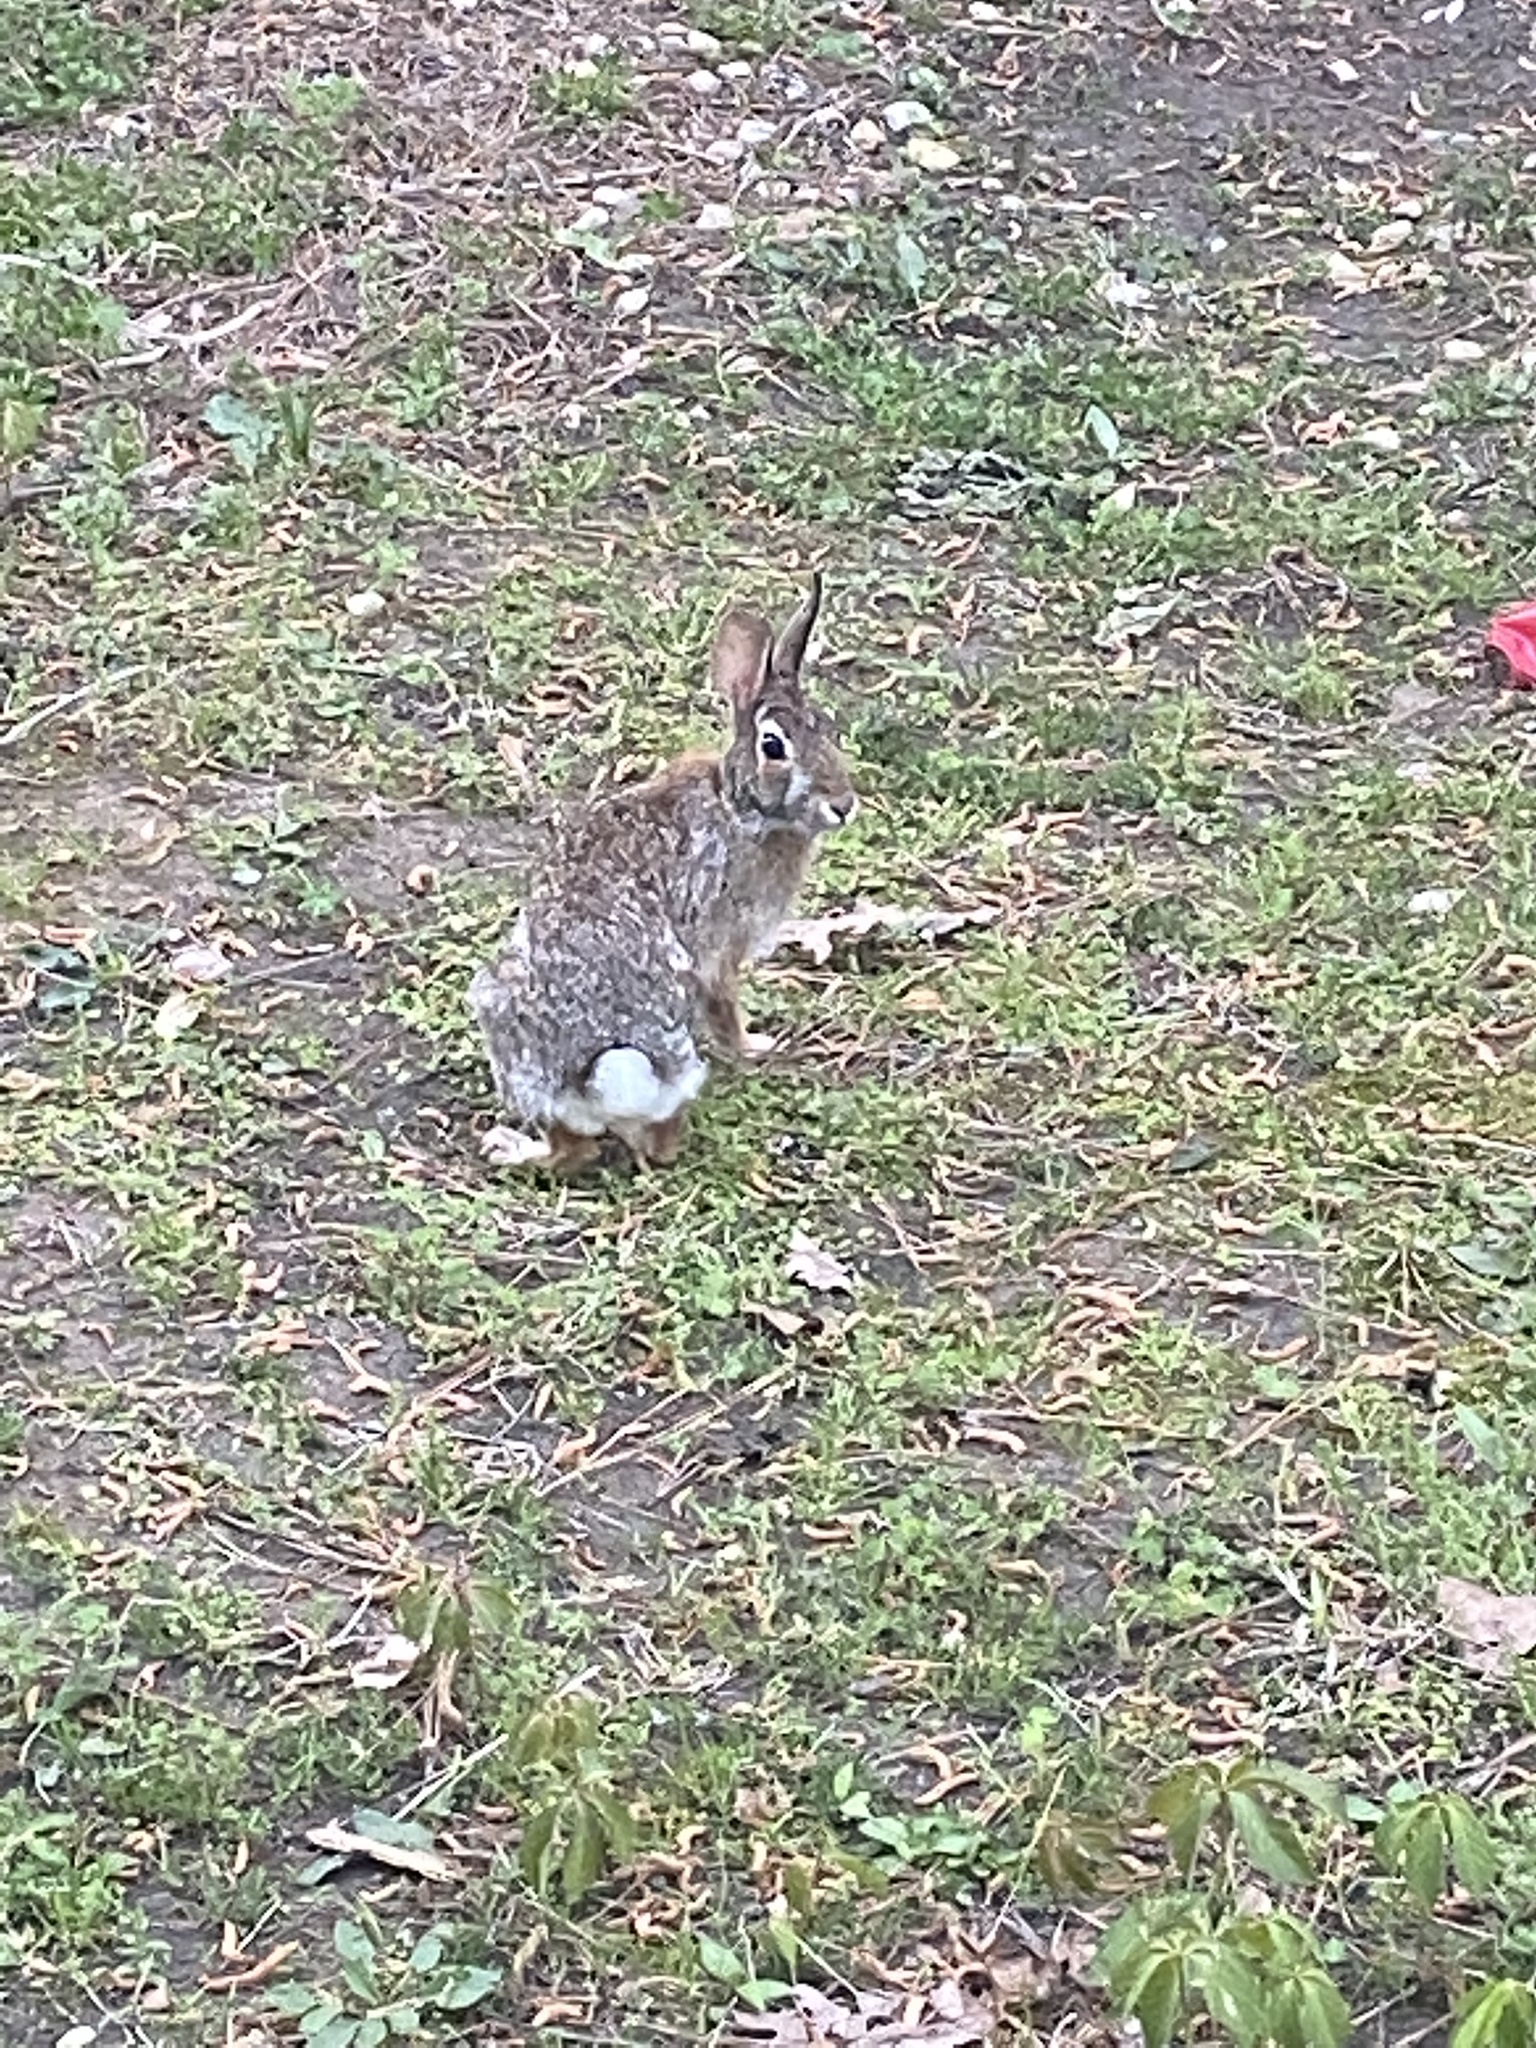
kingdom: Animalia
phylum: Chordata
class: Mammalia
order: Lagomorpha
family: Leporidae
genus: Sylvilagus
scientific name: Sylvilagus floridanus
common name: Eastern cottontail
